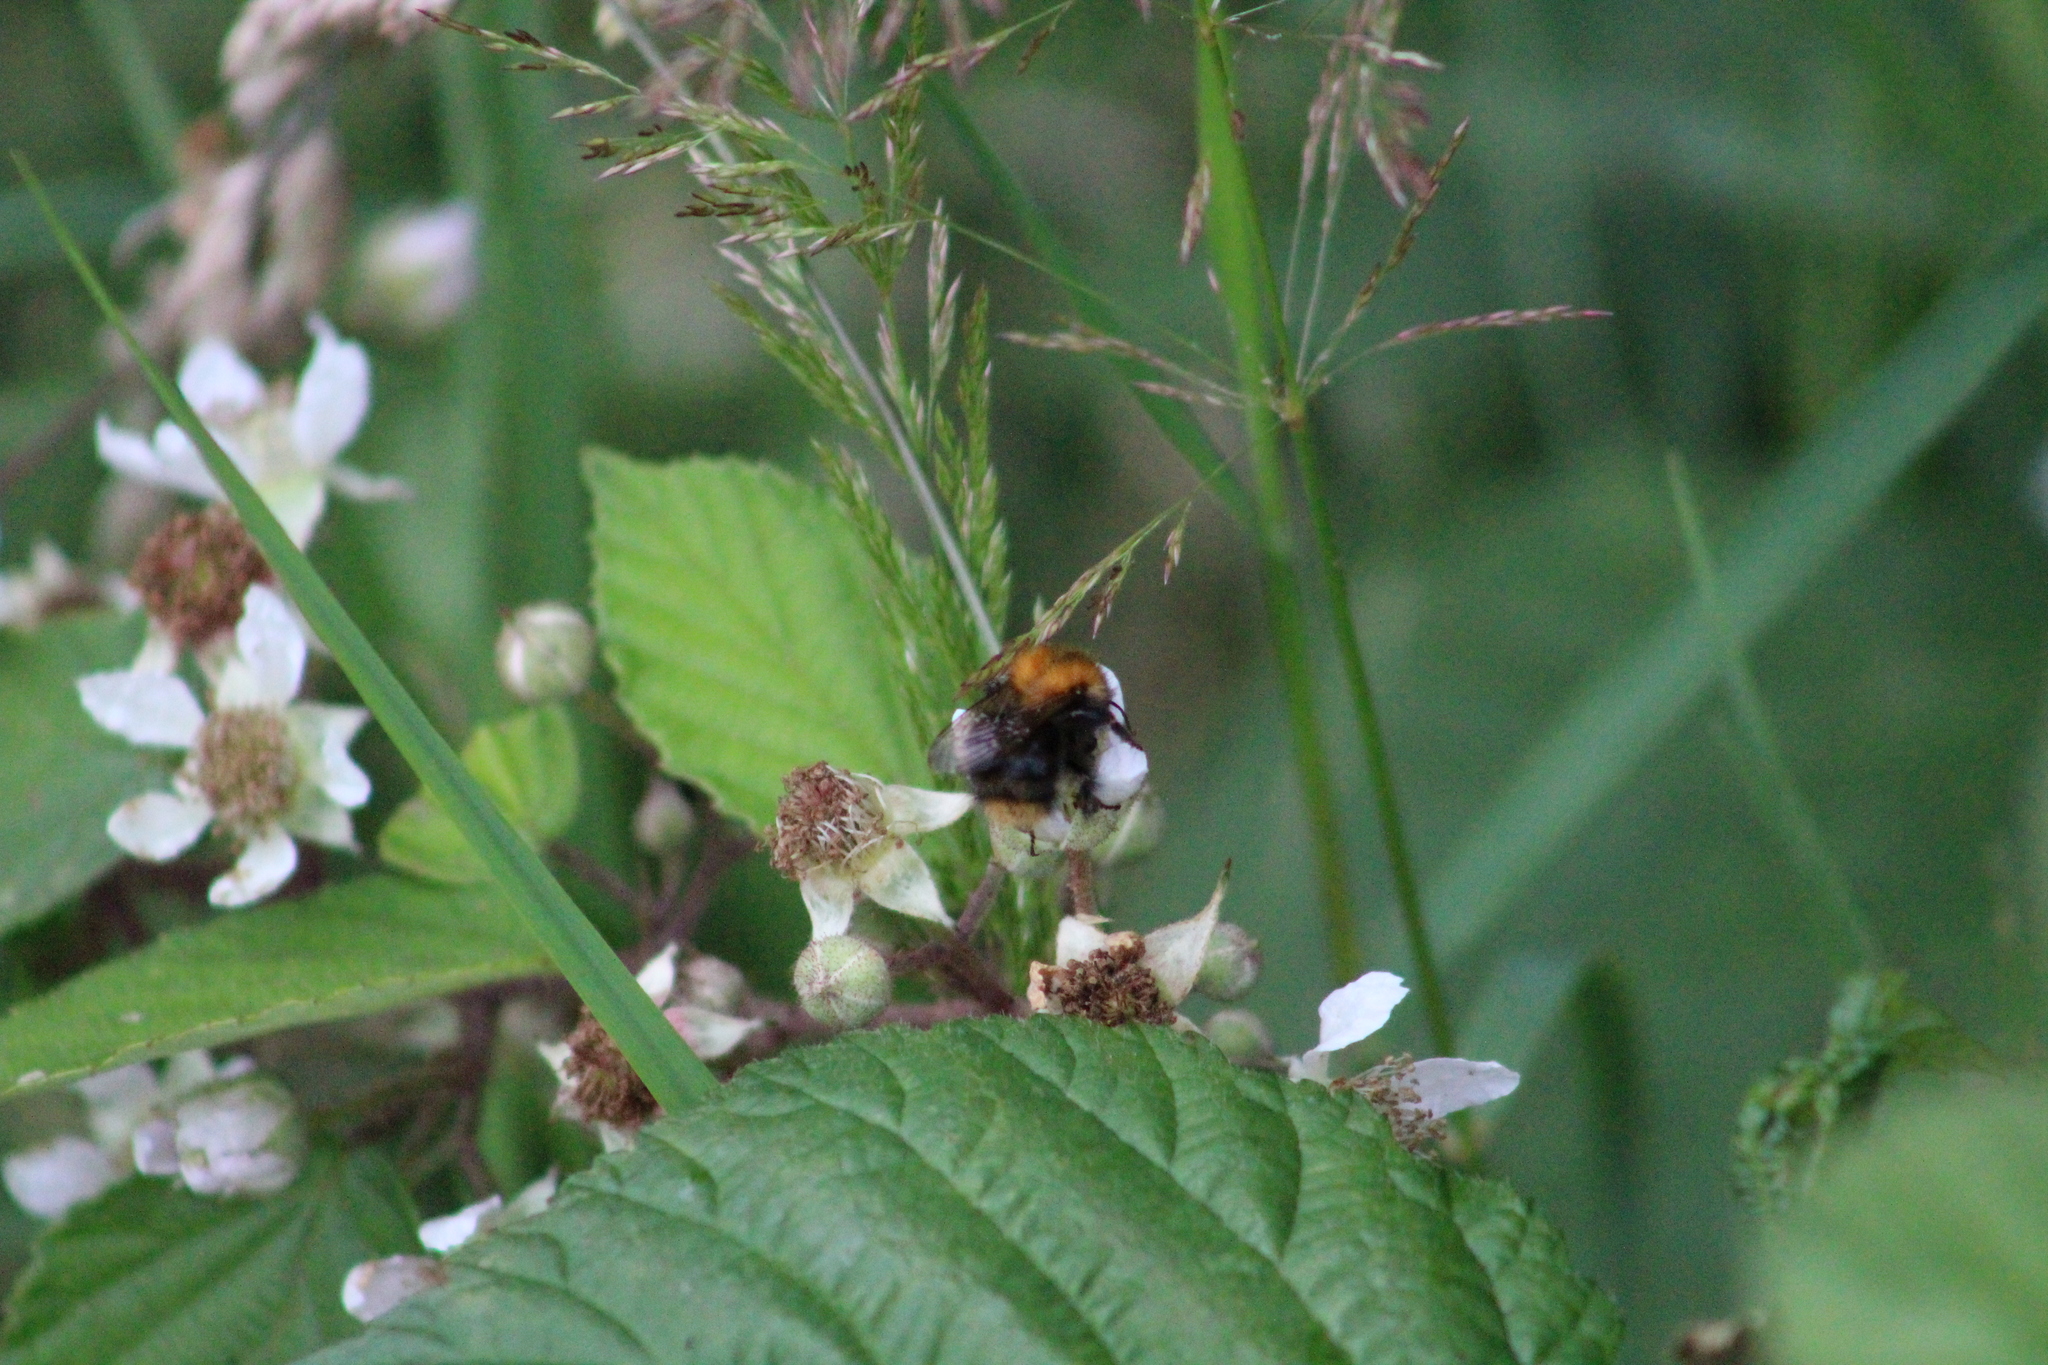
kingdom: Animalia
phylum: Arthropoda
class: Insecta
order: Hymenoptera
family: Apidae
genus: Bombus
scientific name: Bombus pascuorum
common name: Common carder bee
